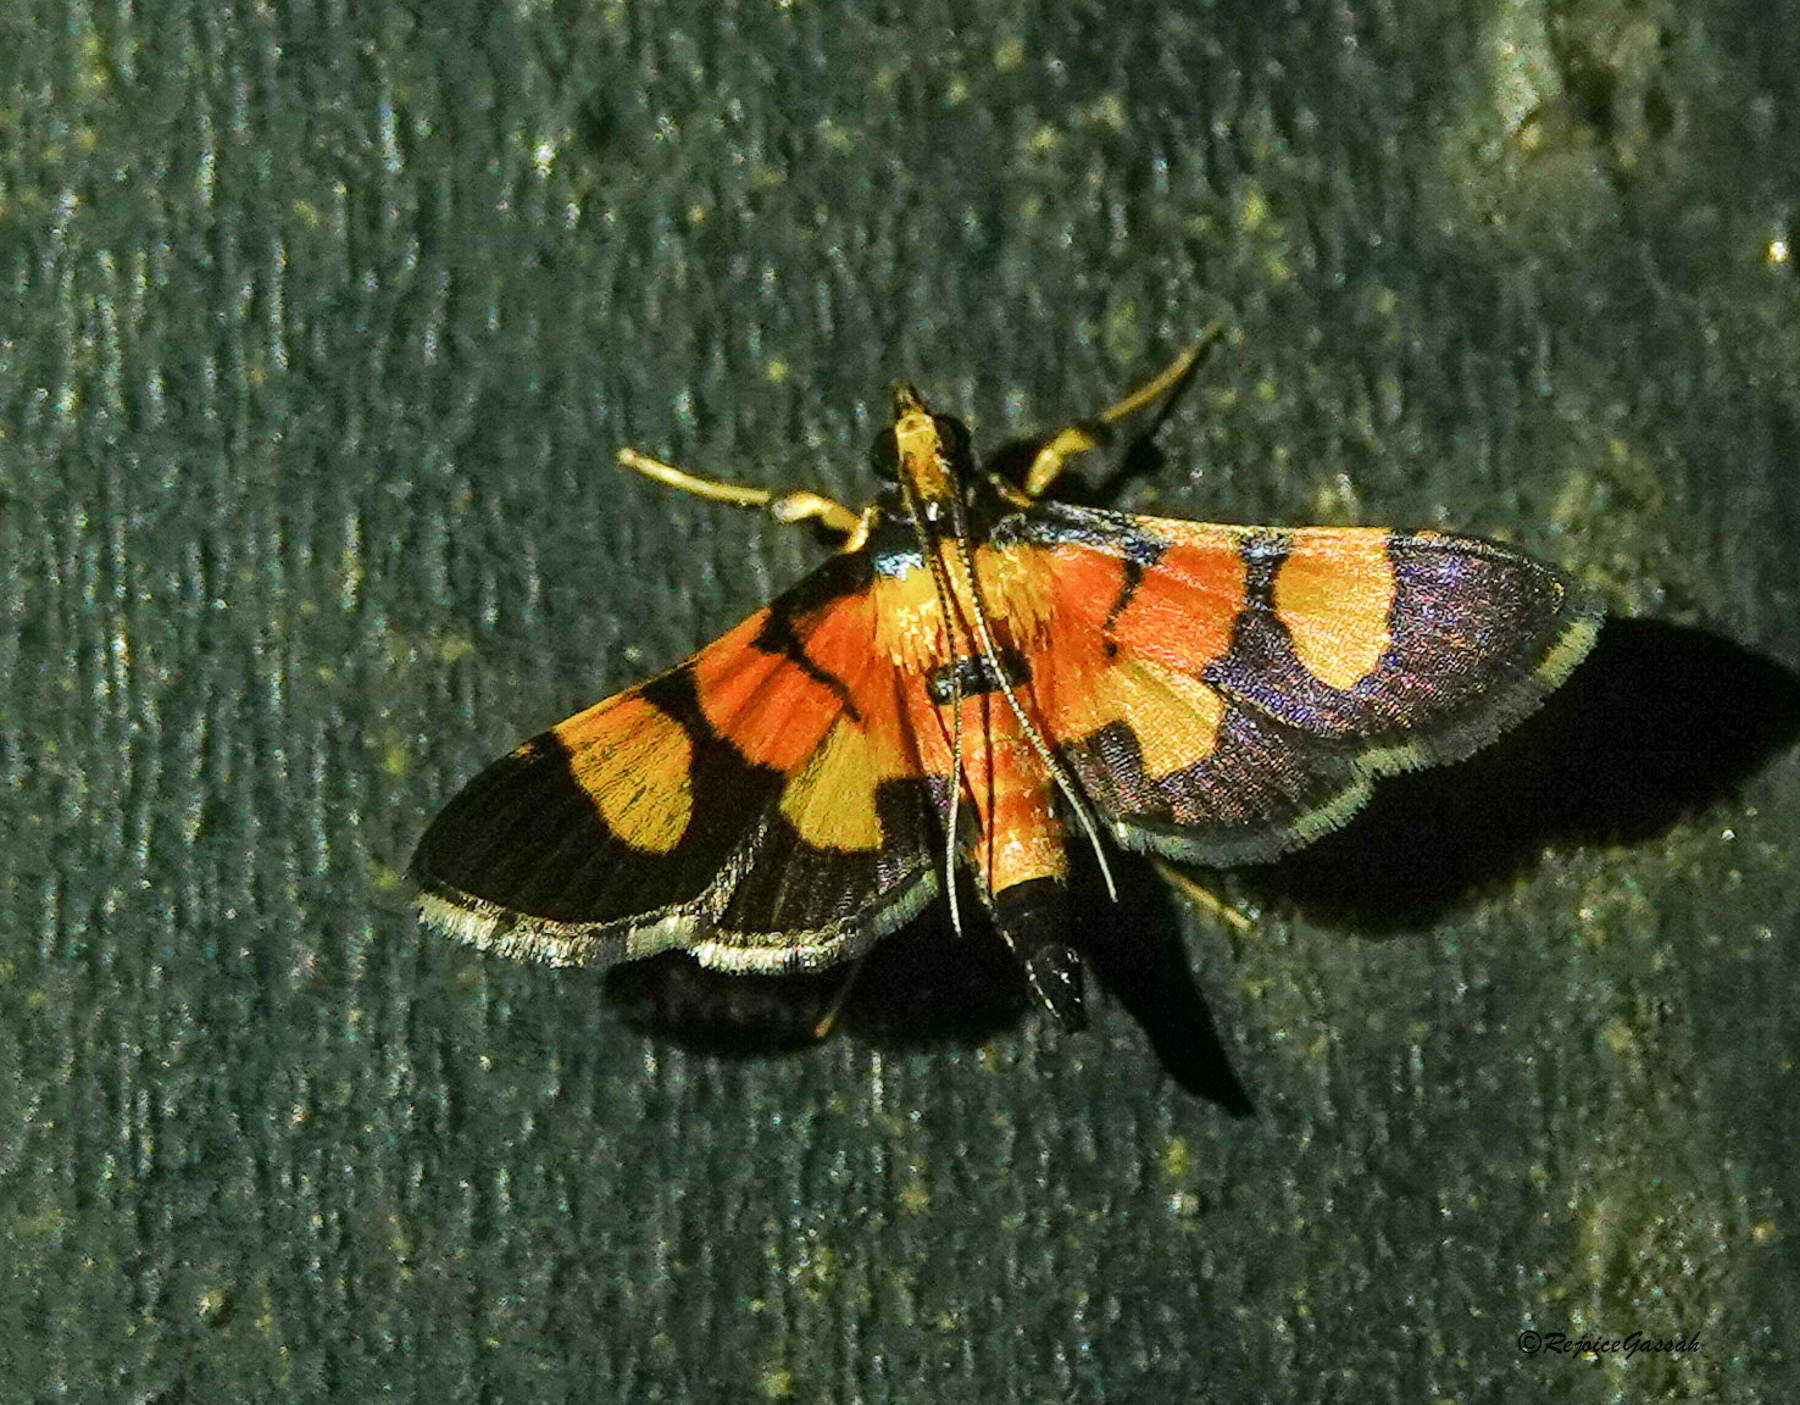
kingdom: Animalia
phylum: Arthropoda
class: Insecta
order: Lepidoptera
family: Crambidae
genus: Aethaloessa
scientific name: Aethaloessa calidalis
